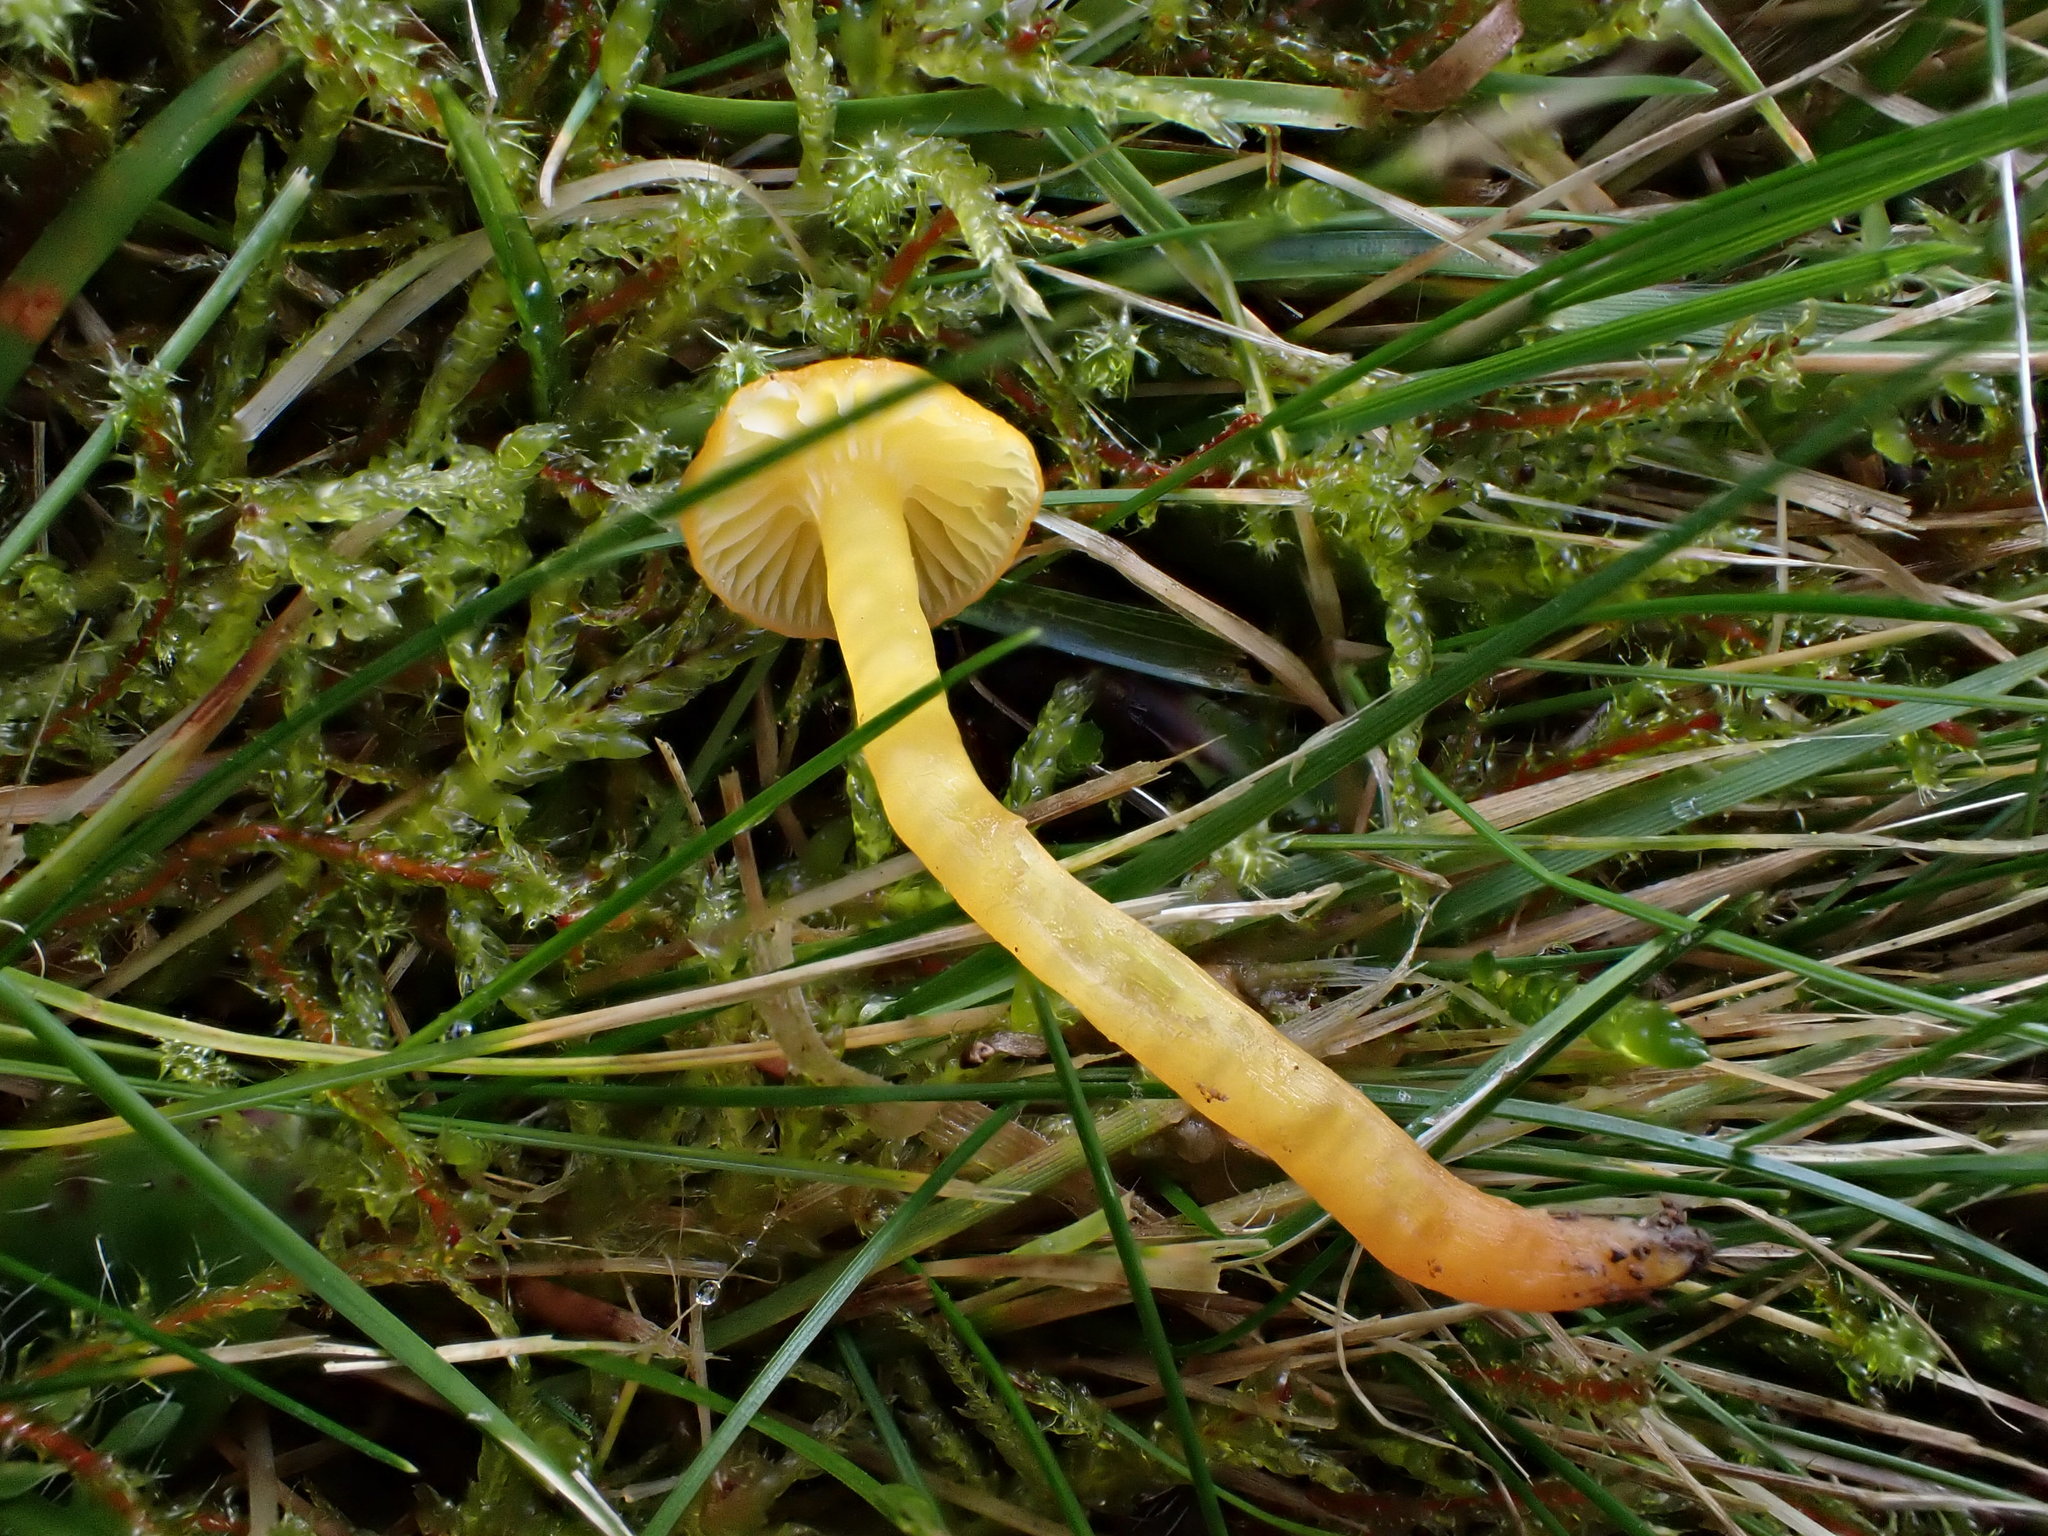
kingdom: Fungi
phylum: Basidiomycota
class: Agaricomycetes
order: Agaricales
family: Hygrophoraceae
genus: Hygrocybe
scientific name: Hygrocybe glutinipes
